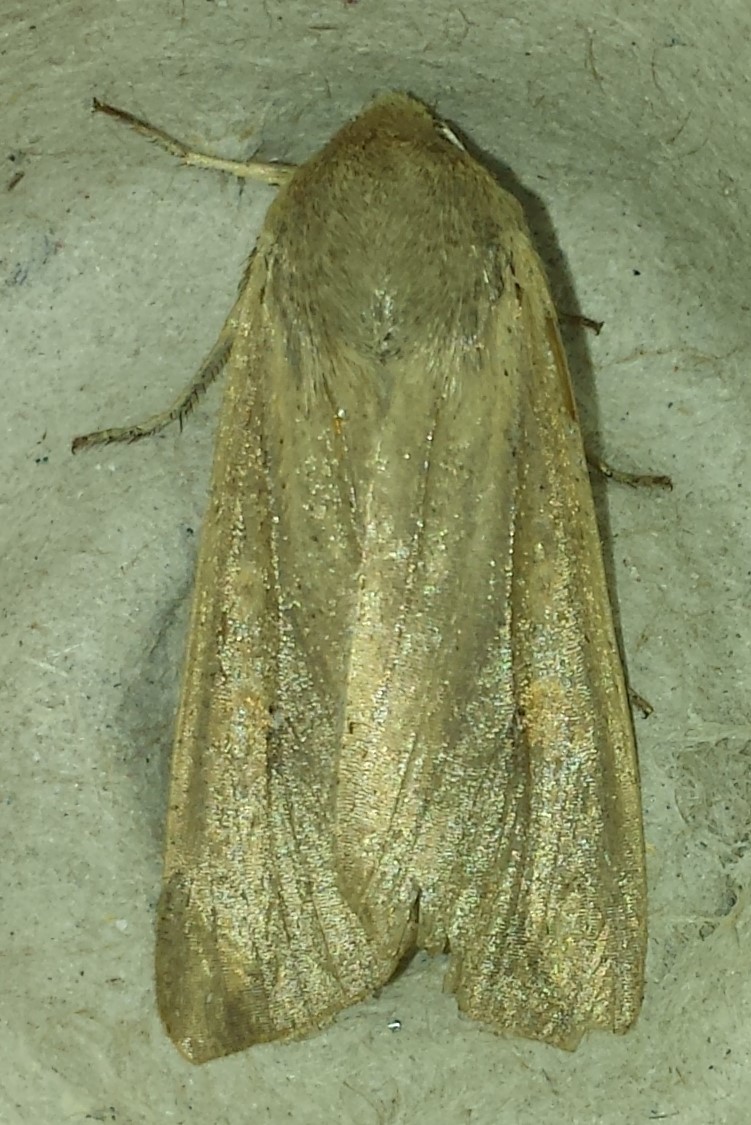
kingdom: Animalia
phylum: Arthropoda
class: Insecta
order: Lepidoptera
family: Noctuidae
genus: Mythimna
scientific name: Mythimna unipuncta
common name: White-speck
